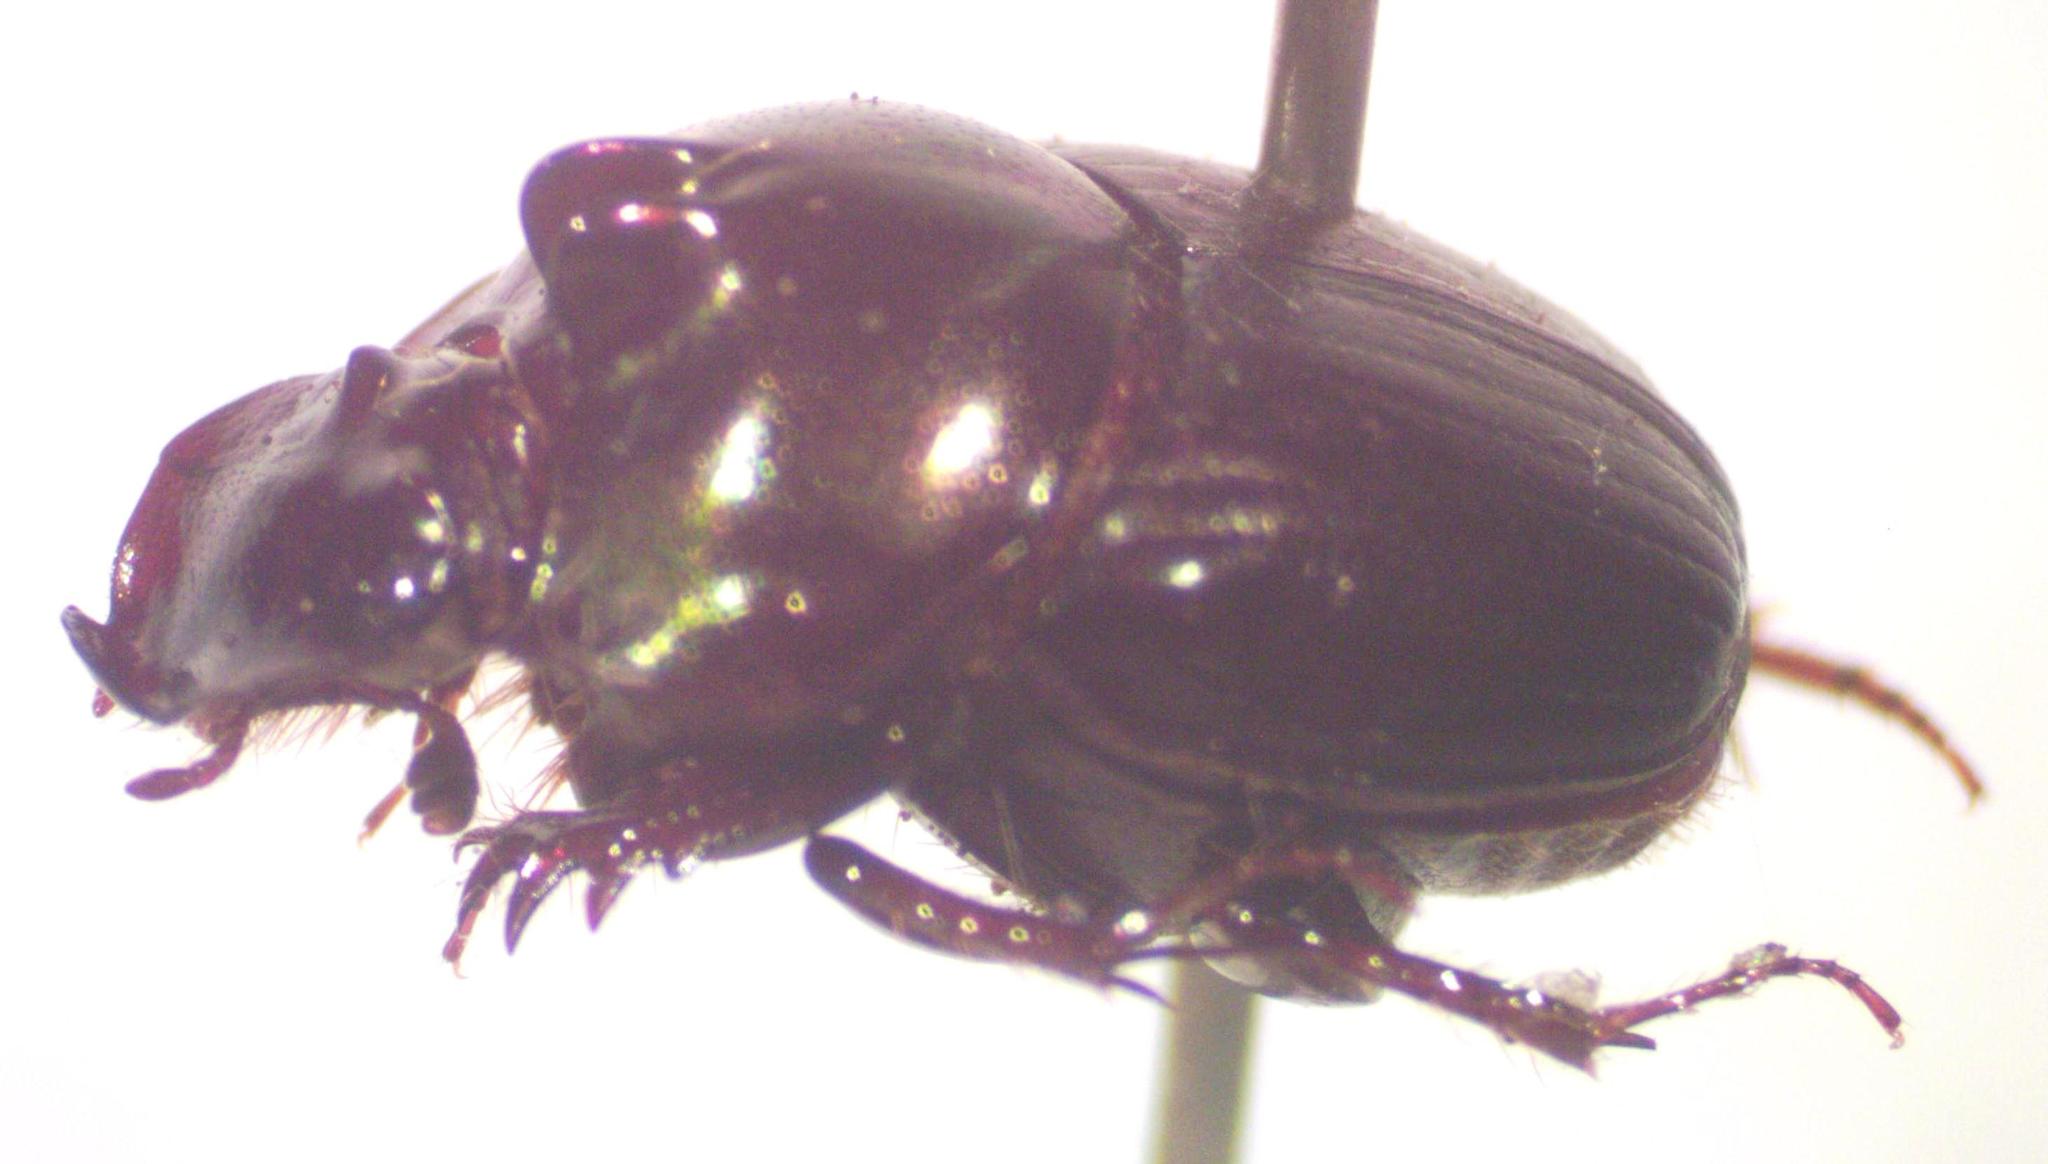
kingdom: Animalia
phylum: Arthropoda
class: Insecta
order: Coleoptera
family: Scarabaeidae
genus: Onthophagus
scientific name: Onthophagus praecellens
